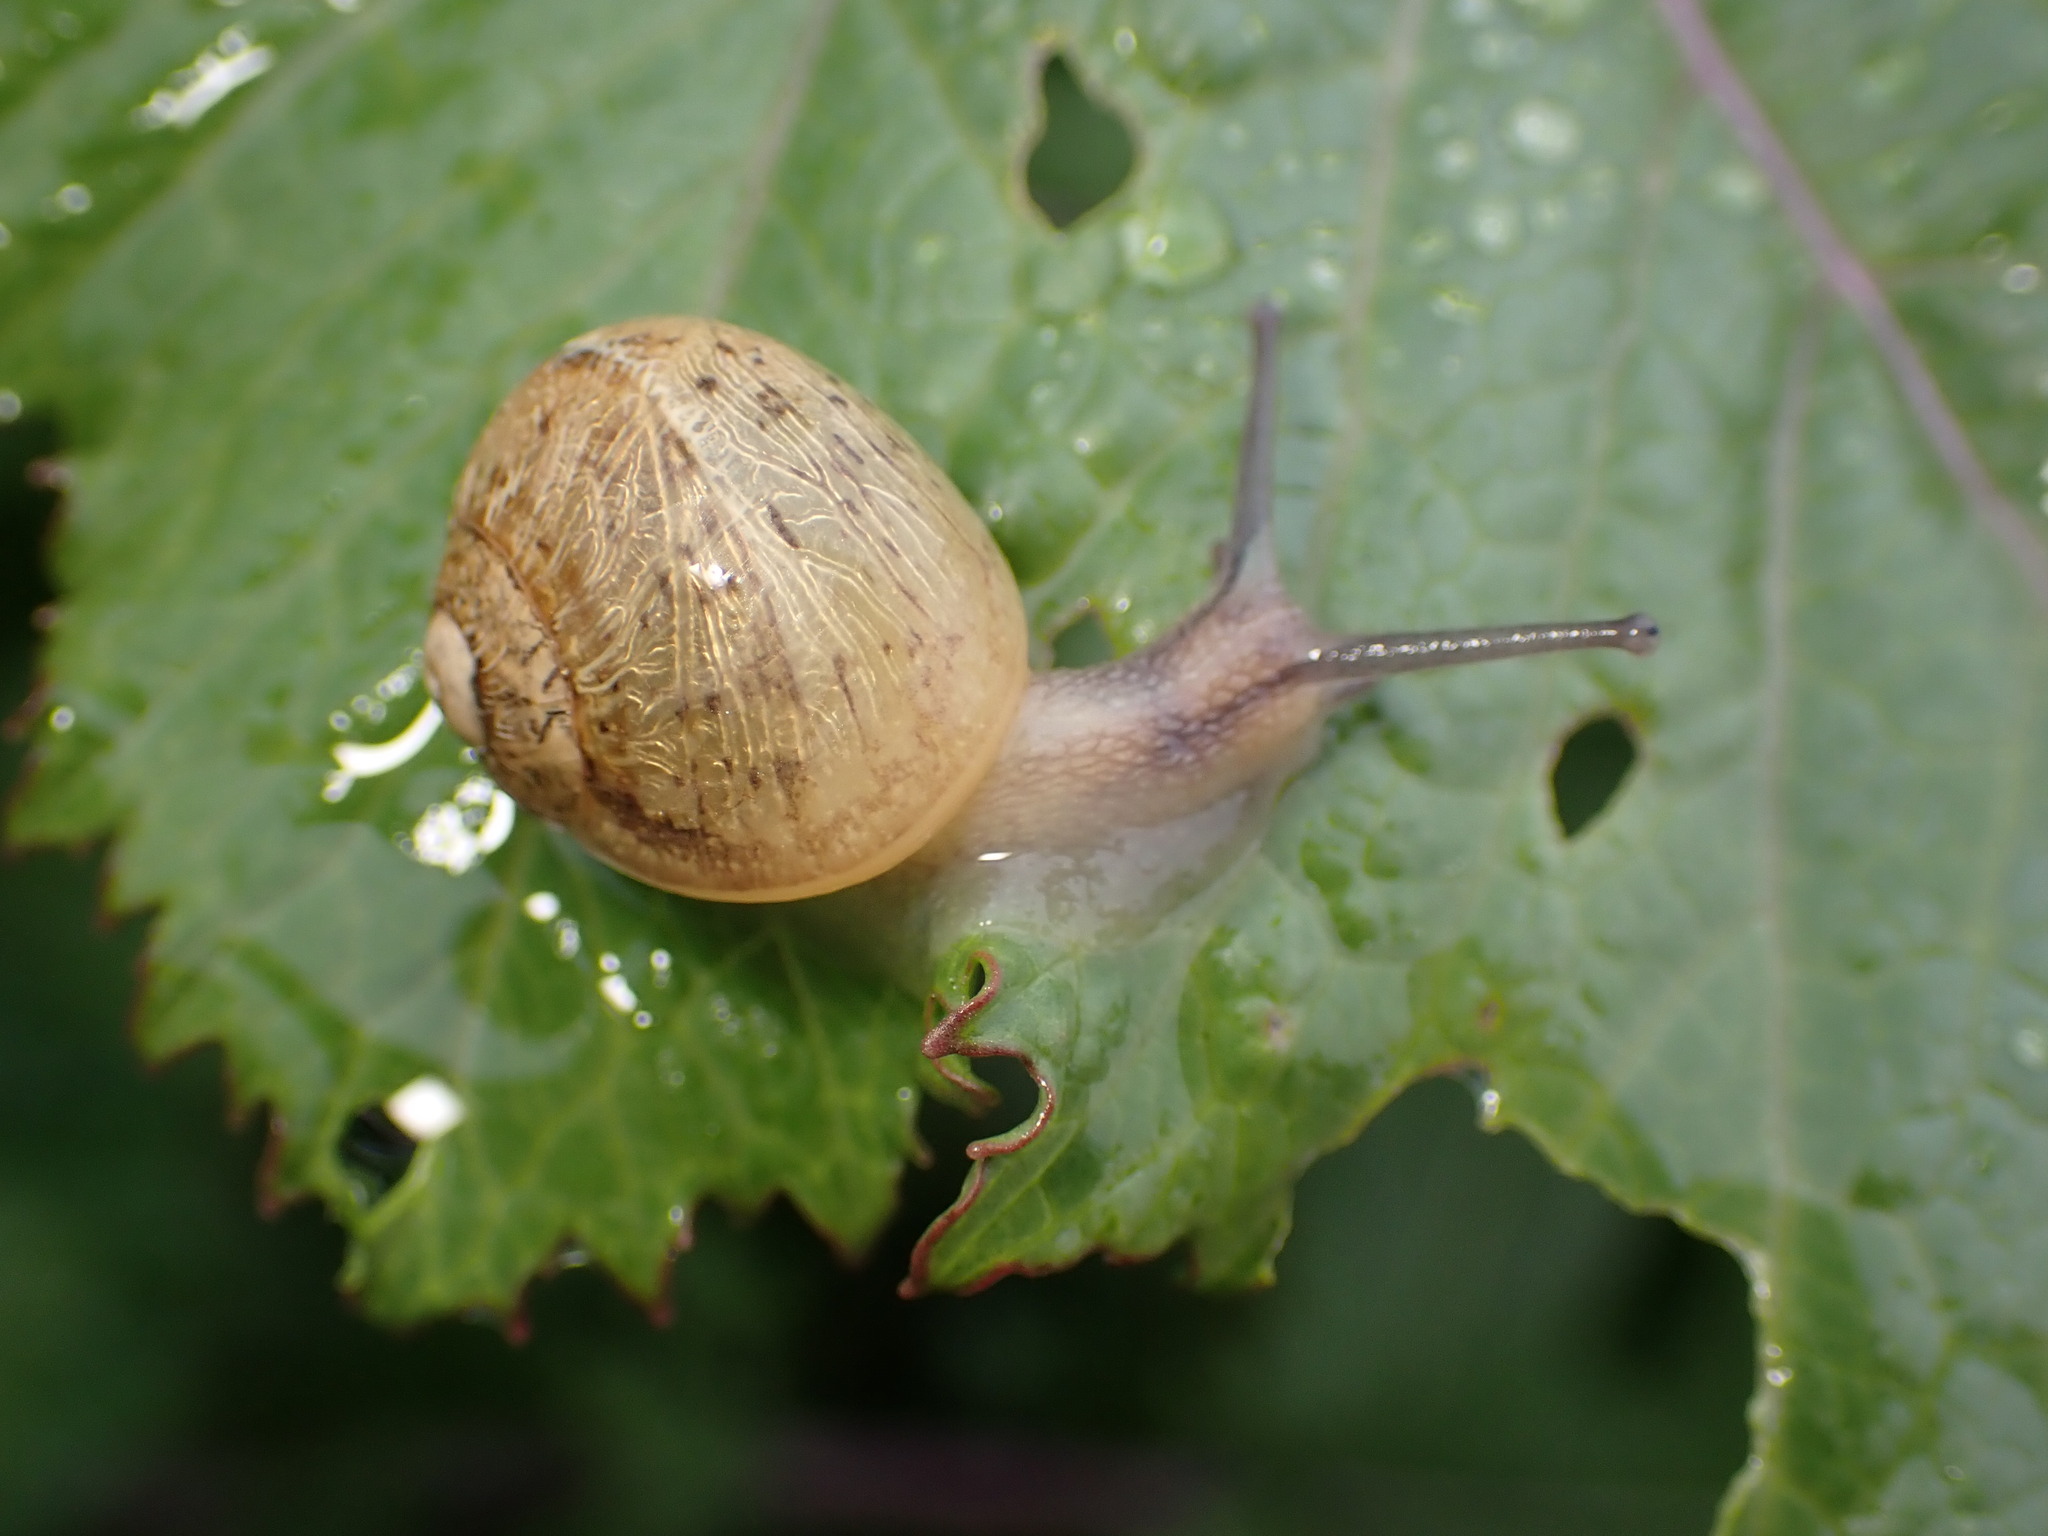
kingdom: Animalia
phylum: Mollusca
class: Gastropoda
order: Stylommatophora
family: Helicidae
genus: Cornu
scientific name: Cornu aspersum
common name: Brown garden snail
